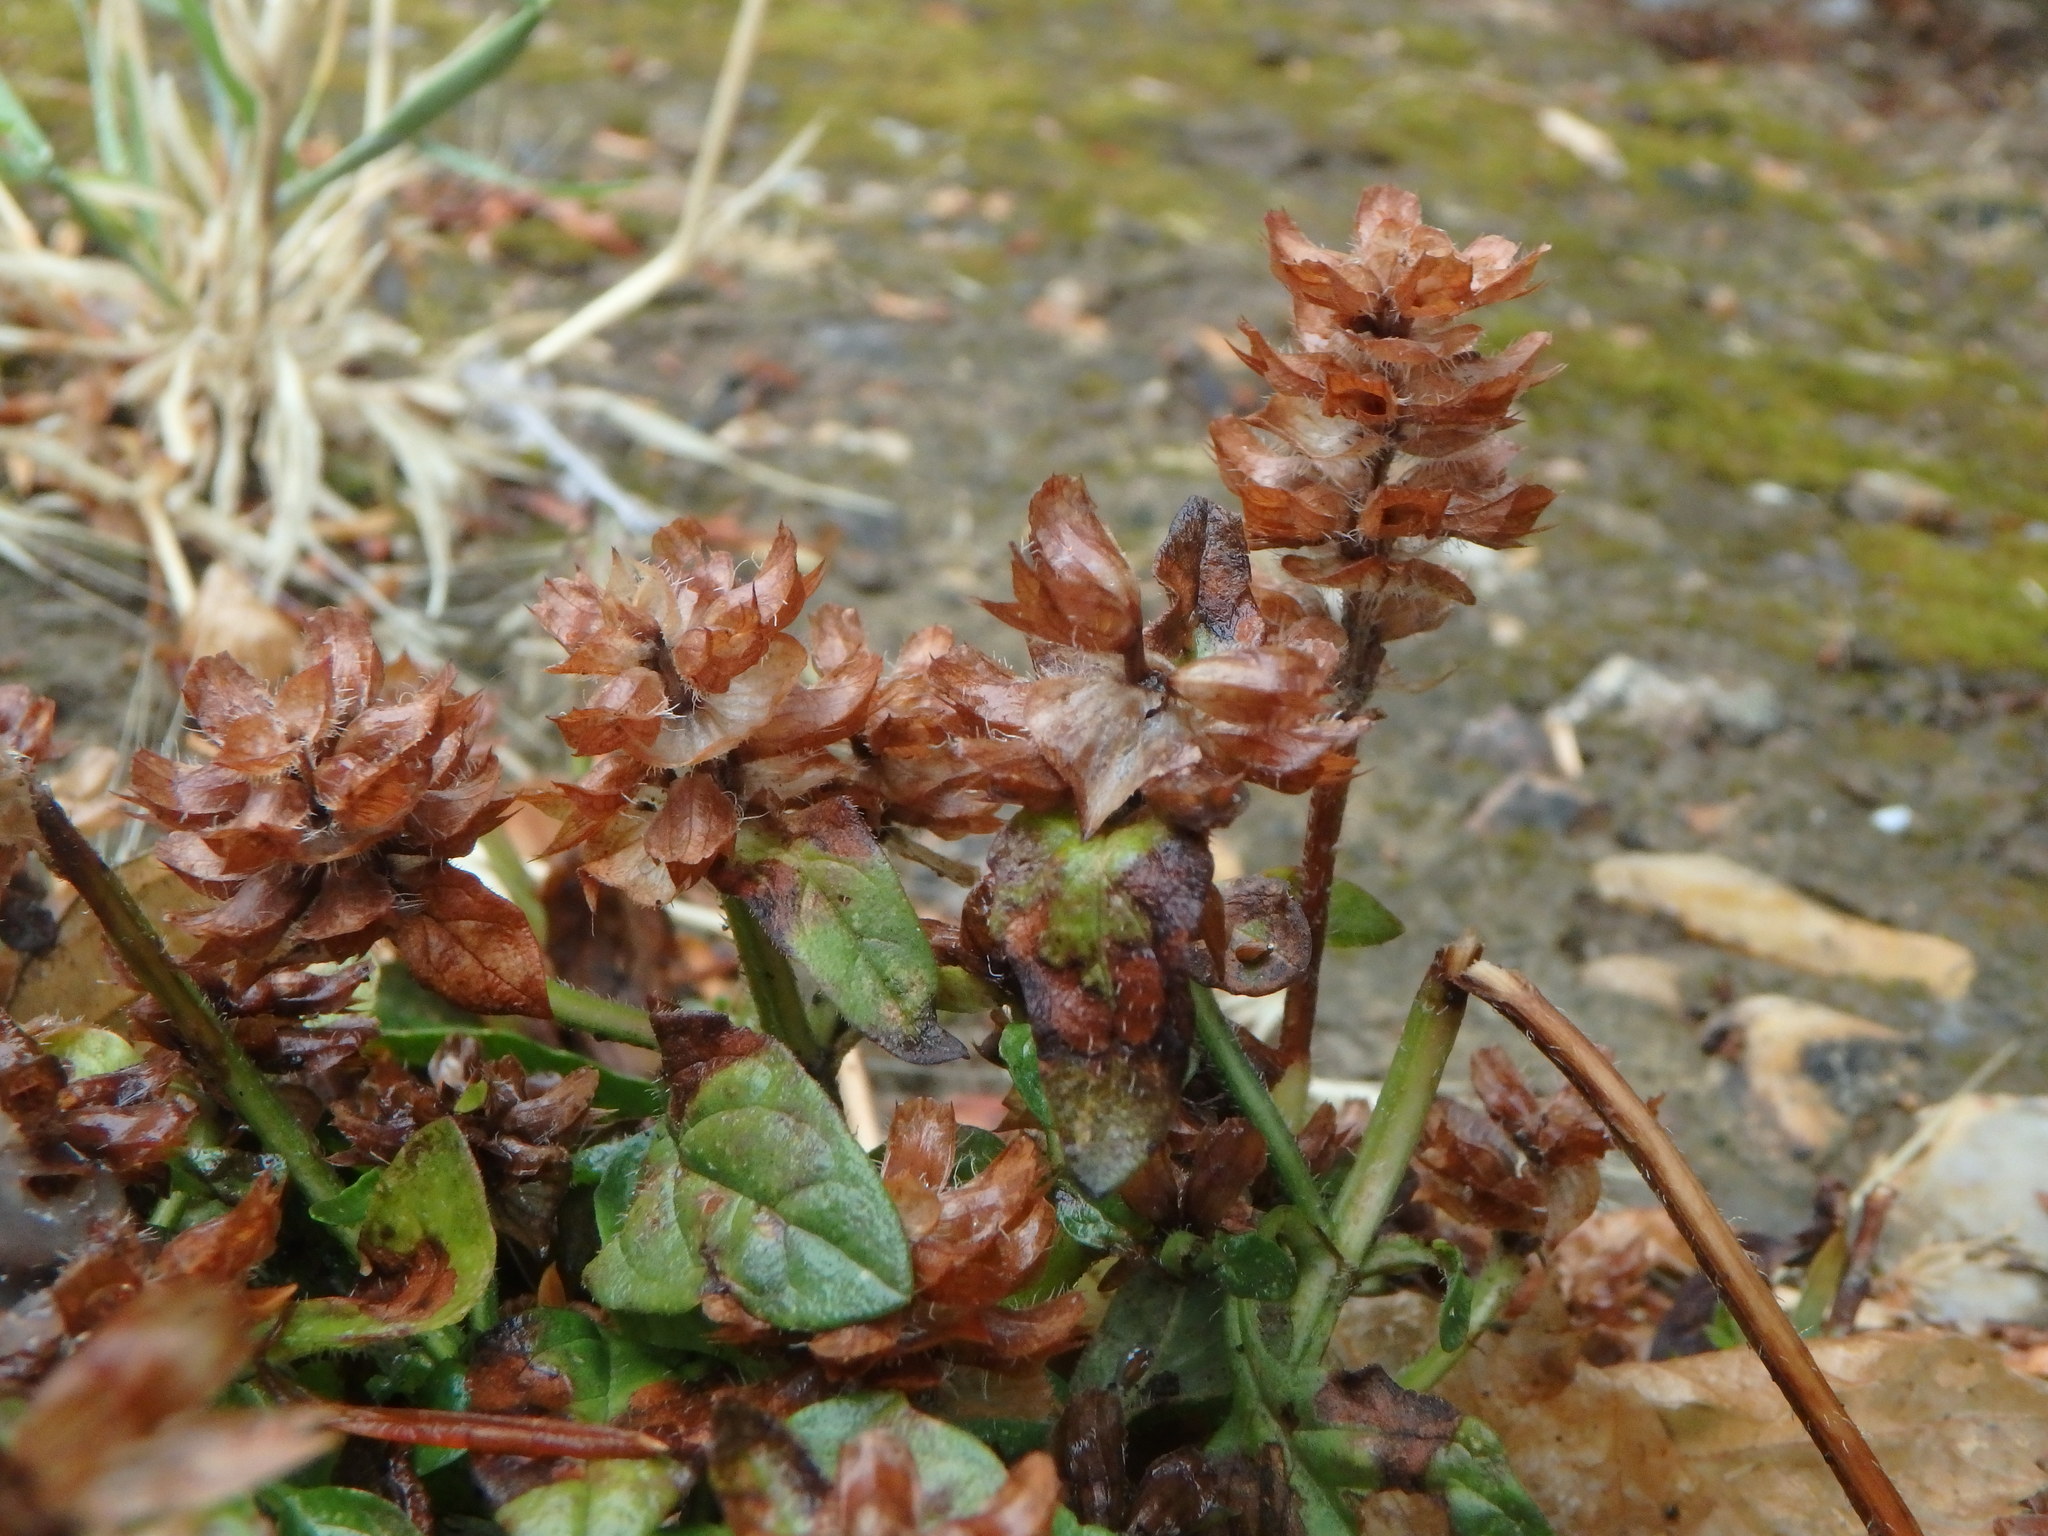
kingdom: Plantae
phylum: Tracheophyta
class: Magnoliopsida
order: Lamiales
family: Lamiaceae
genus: Prunella
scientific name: Prunella vulgaris
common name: Heal-all
